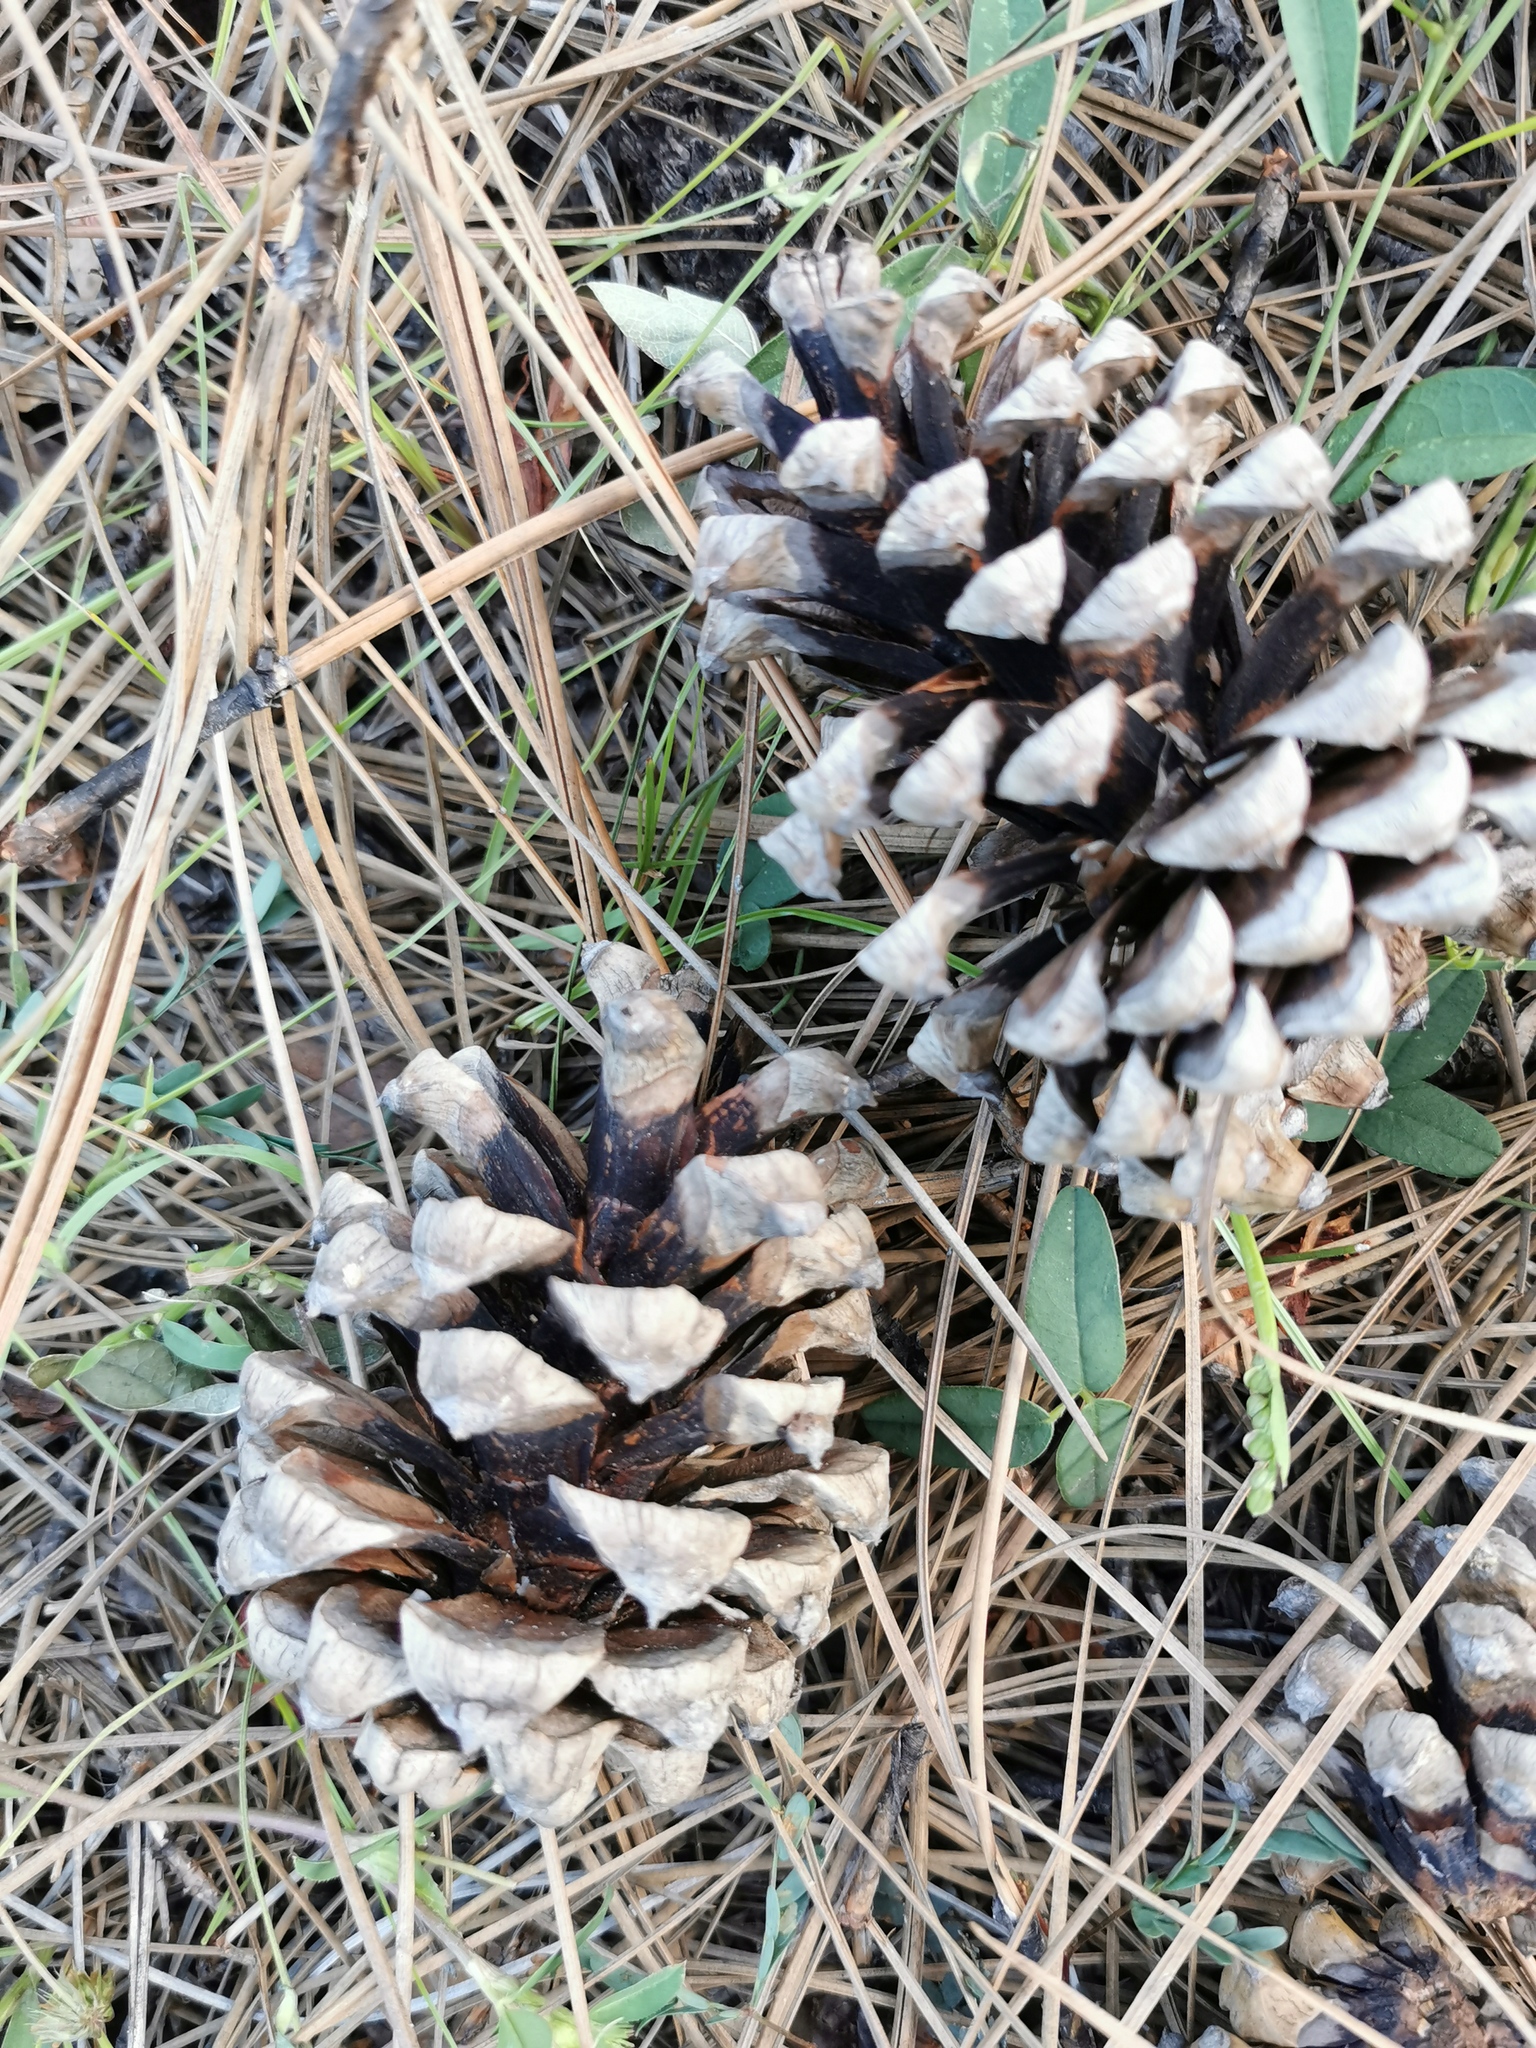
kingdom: Plantae
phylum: Tracheophyta
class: Pinopsida
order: Pinales
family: Pinaceae
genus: Pinus
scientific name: Pinus engelmannii
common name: Apache pine
